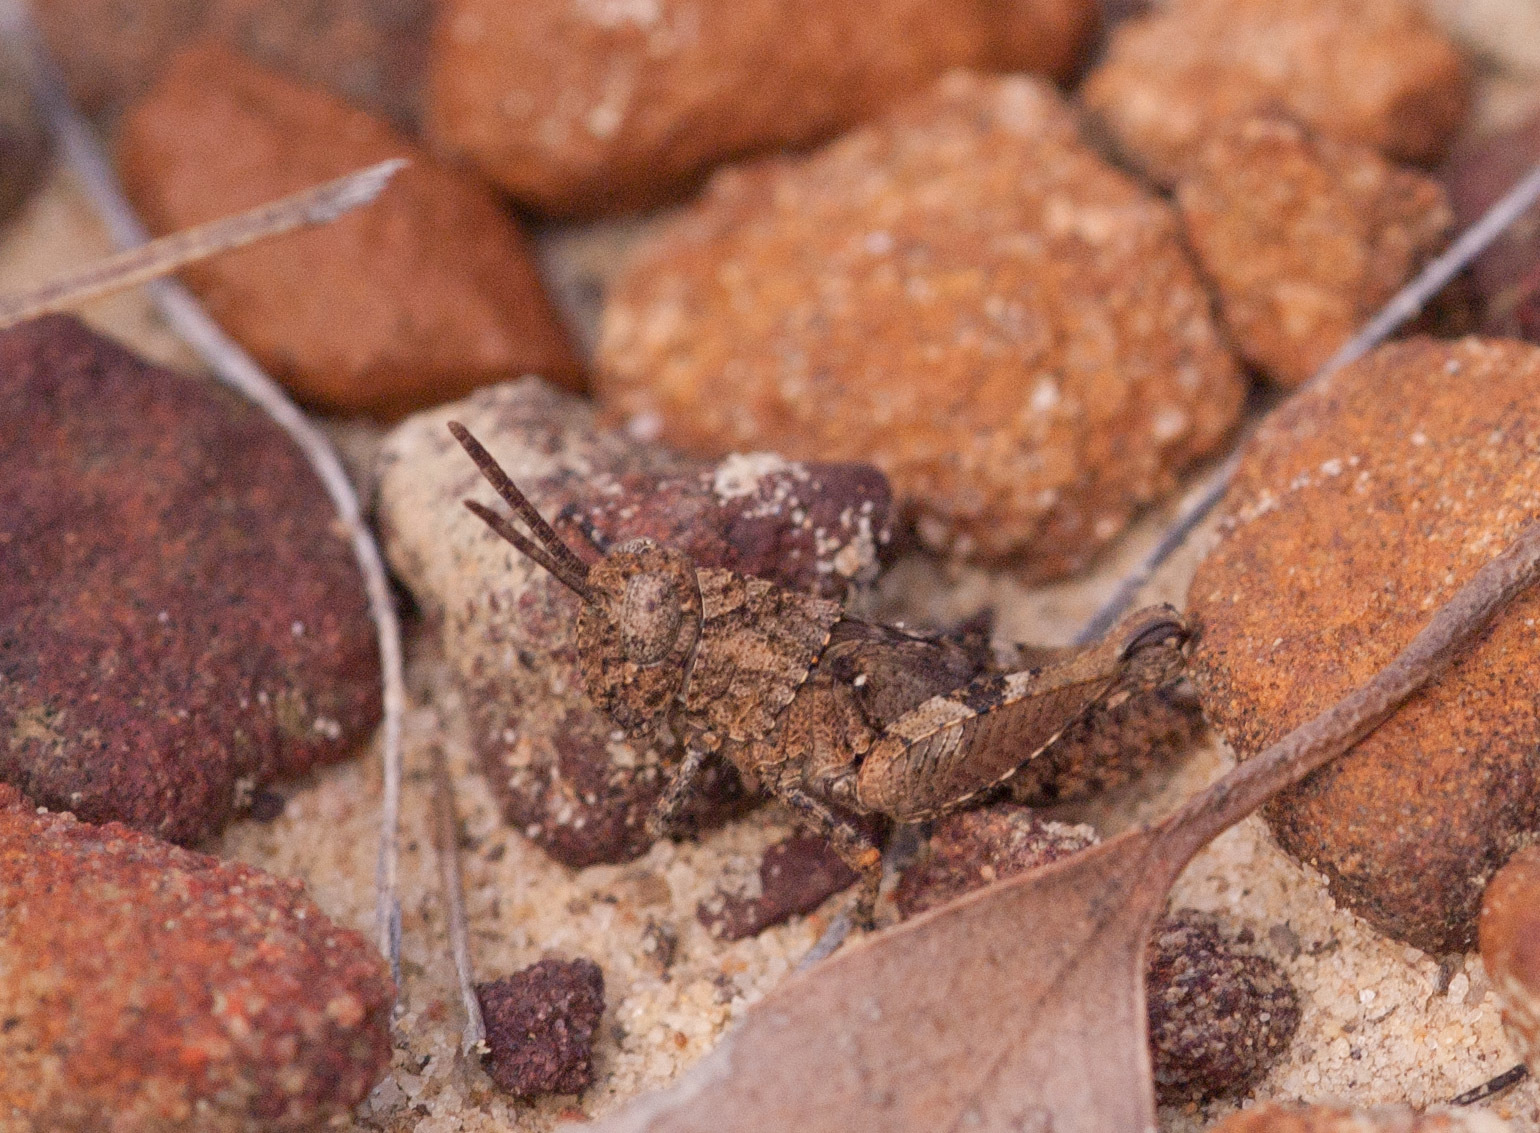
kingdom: Animalia
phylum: Arthropoda
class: Insecta
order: Orthoptera
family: Acrididae
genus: Cirphula
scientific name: Cirphula pyrrhocnemis
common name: Variable cirphula
